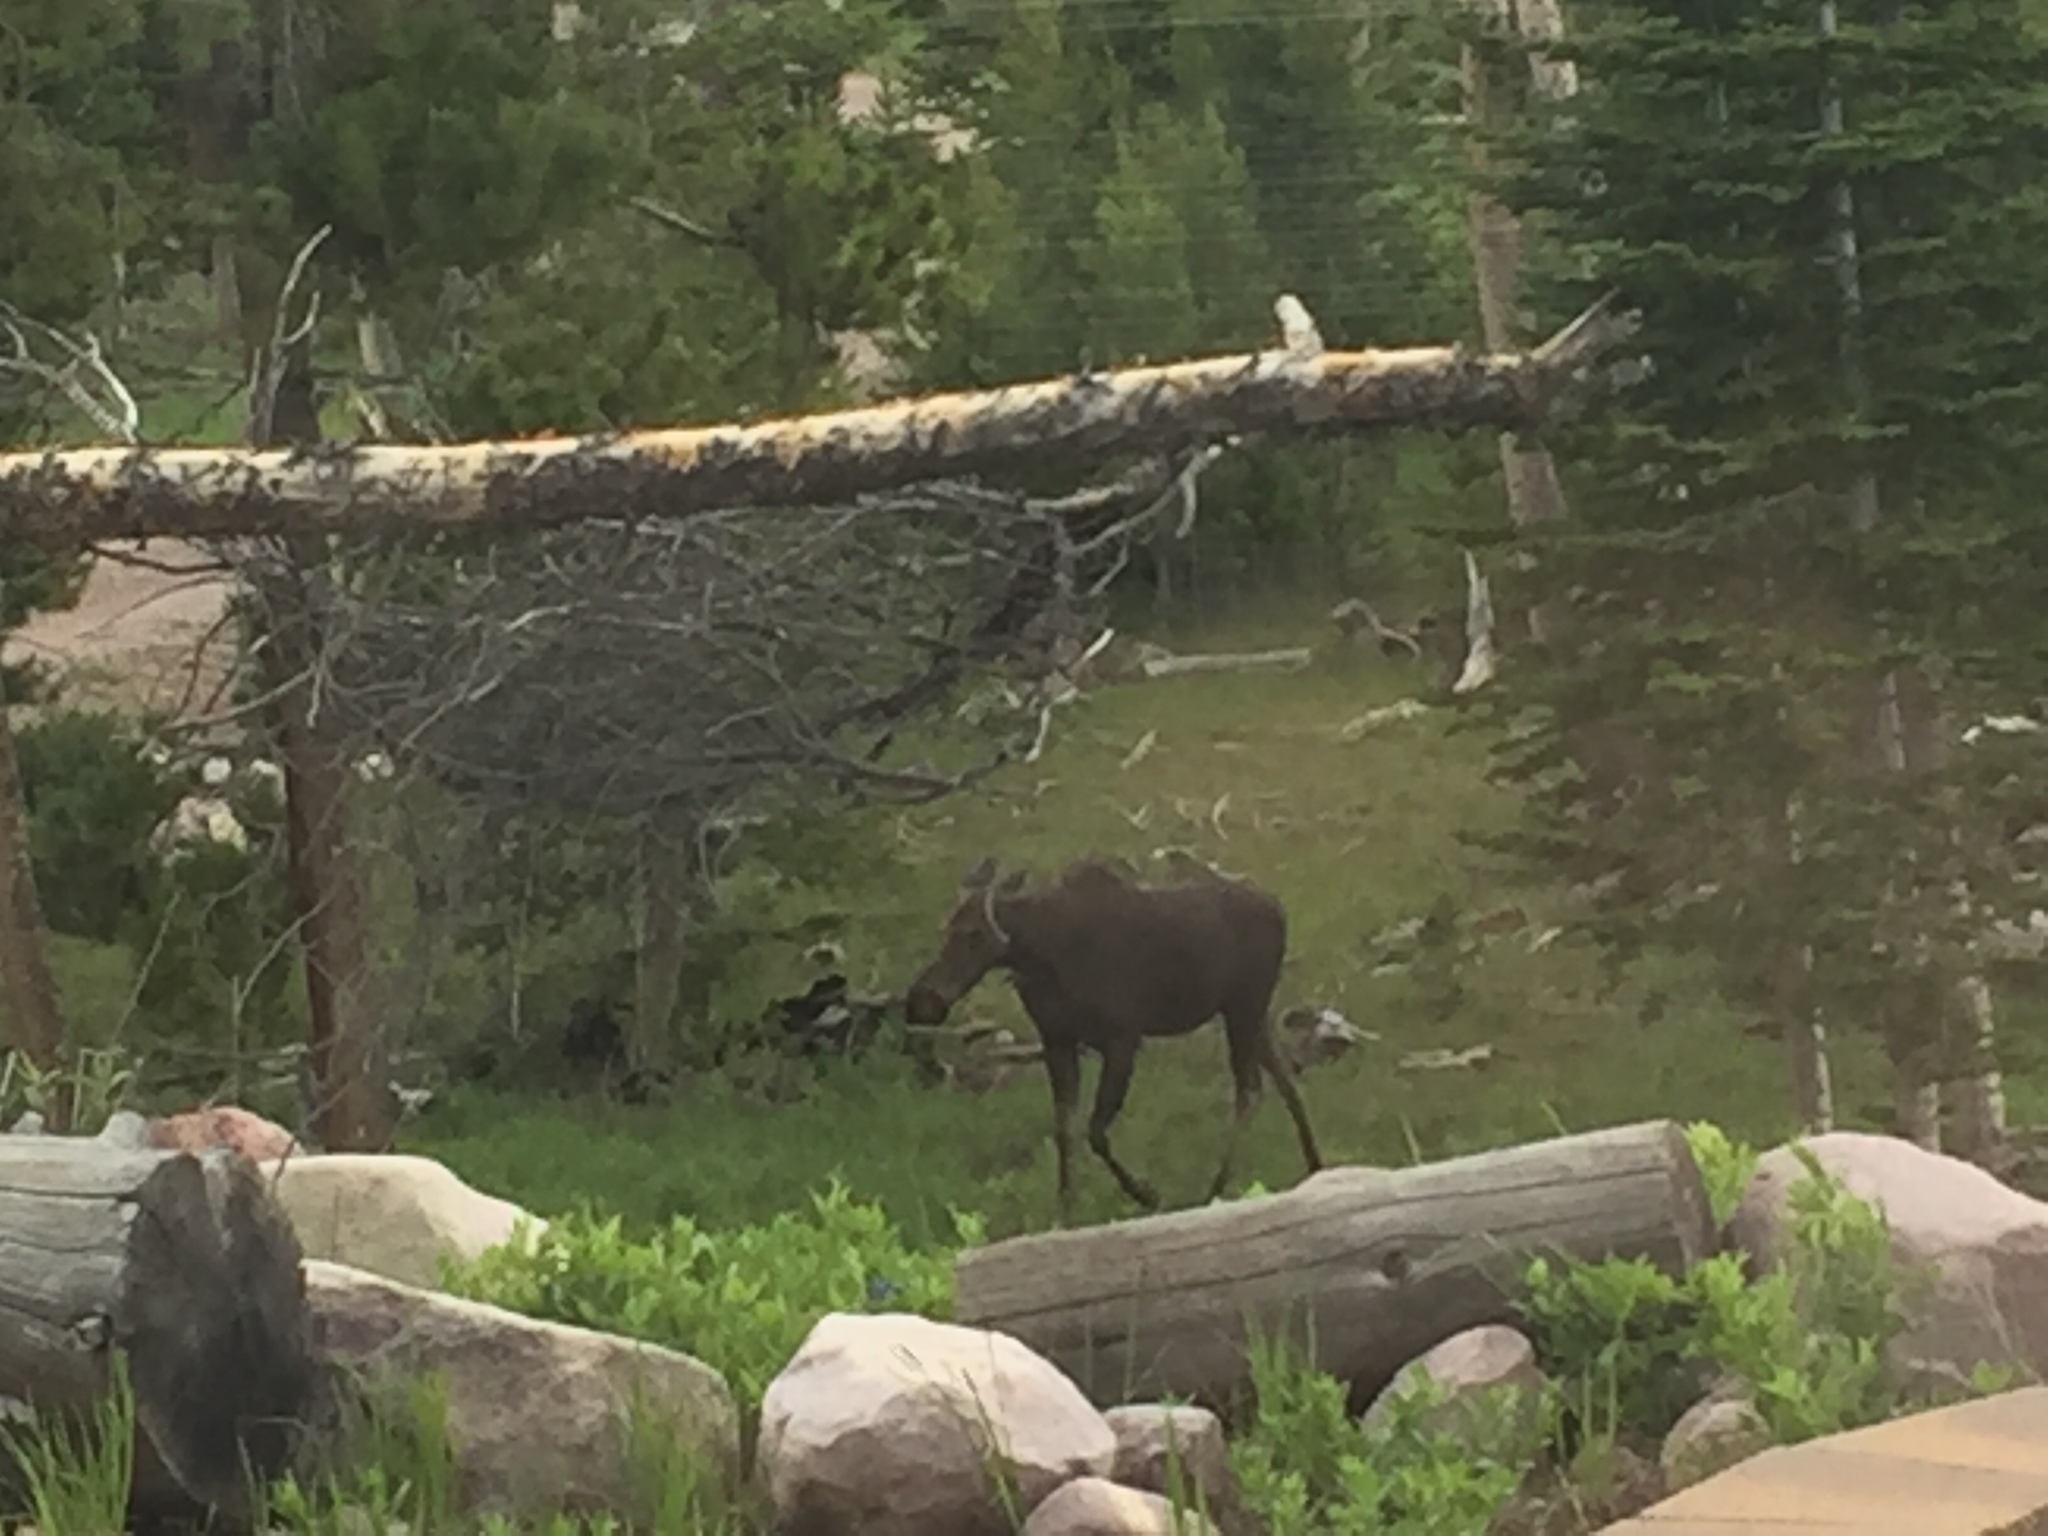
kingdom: Animalia
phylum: Chordata
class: Mammalia
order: Artiodactyla
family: Cervidae
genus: Alces
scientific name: Alces alces
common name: Moose
